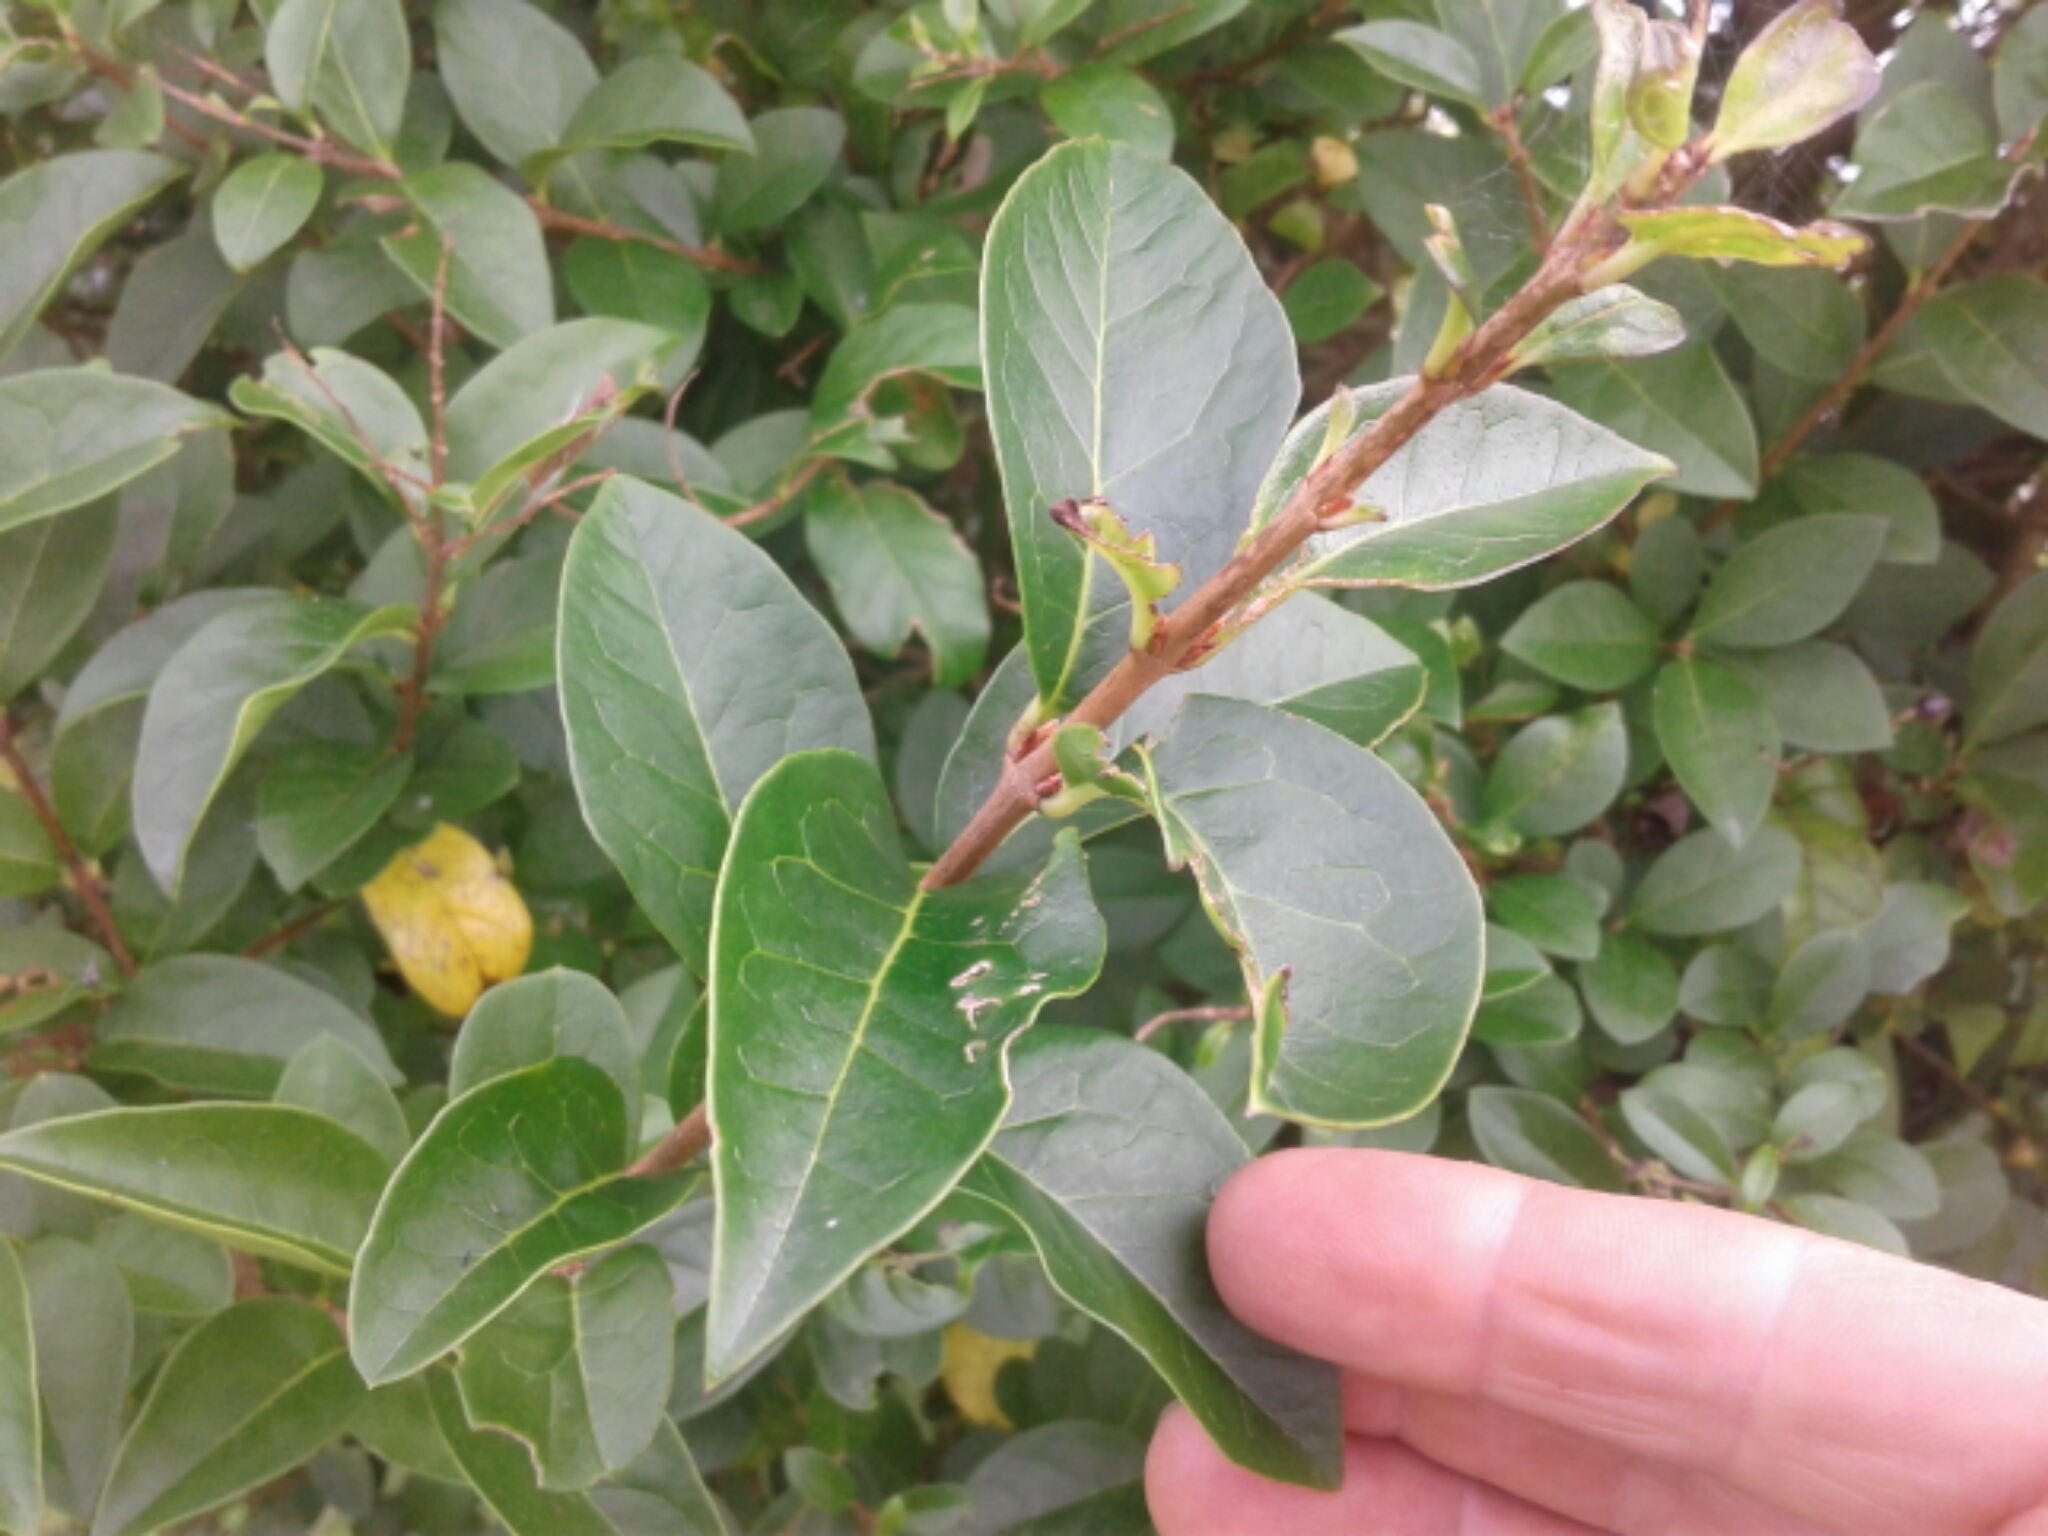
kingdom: Plantae
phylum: Tracheophyta
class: Magnoliopsida
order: Lamiales
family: Oleaceae
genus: Ligustrum
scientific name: Ligustrum ovalifolium
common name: California privet
